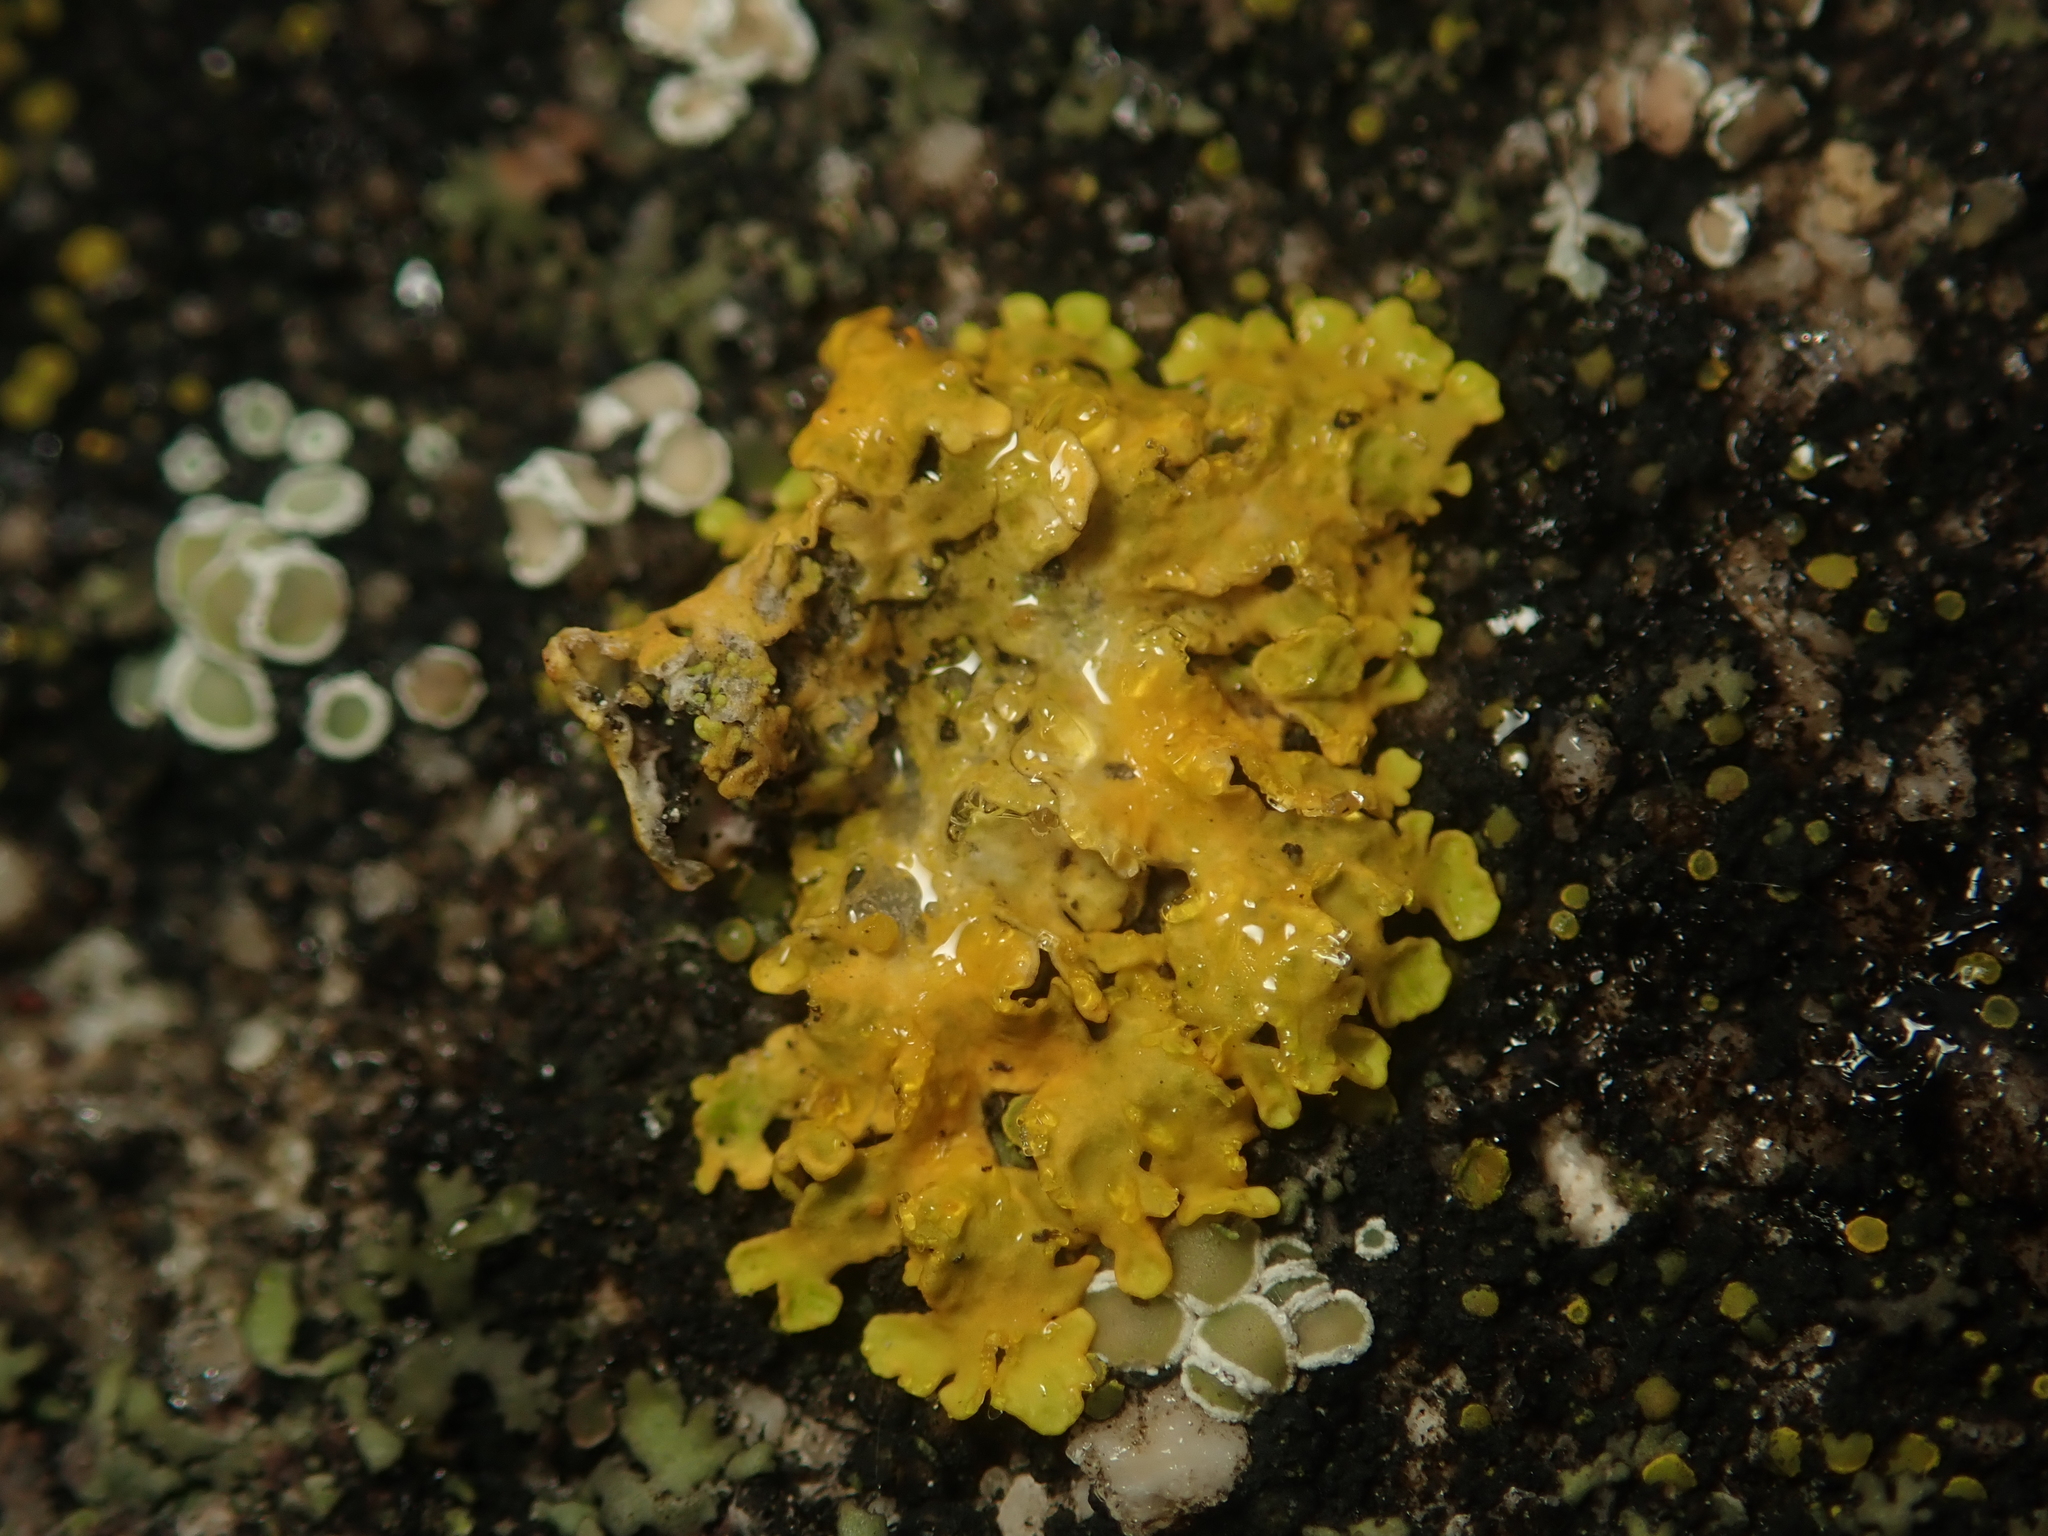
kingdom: Fungi
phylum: Ascomycota
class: Lecanoromycetes
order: Teloschistales
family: Teloschistaceae
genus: Xanthoria
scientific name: Xanthoria parietina
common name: Common orange lichen
